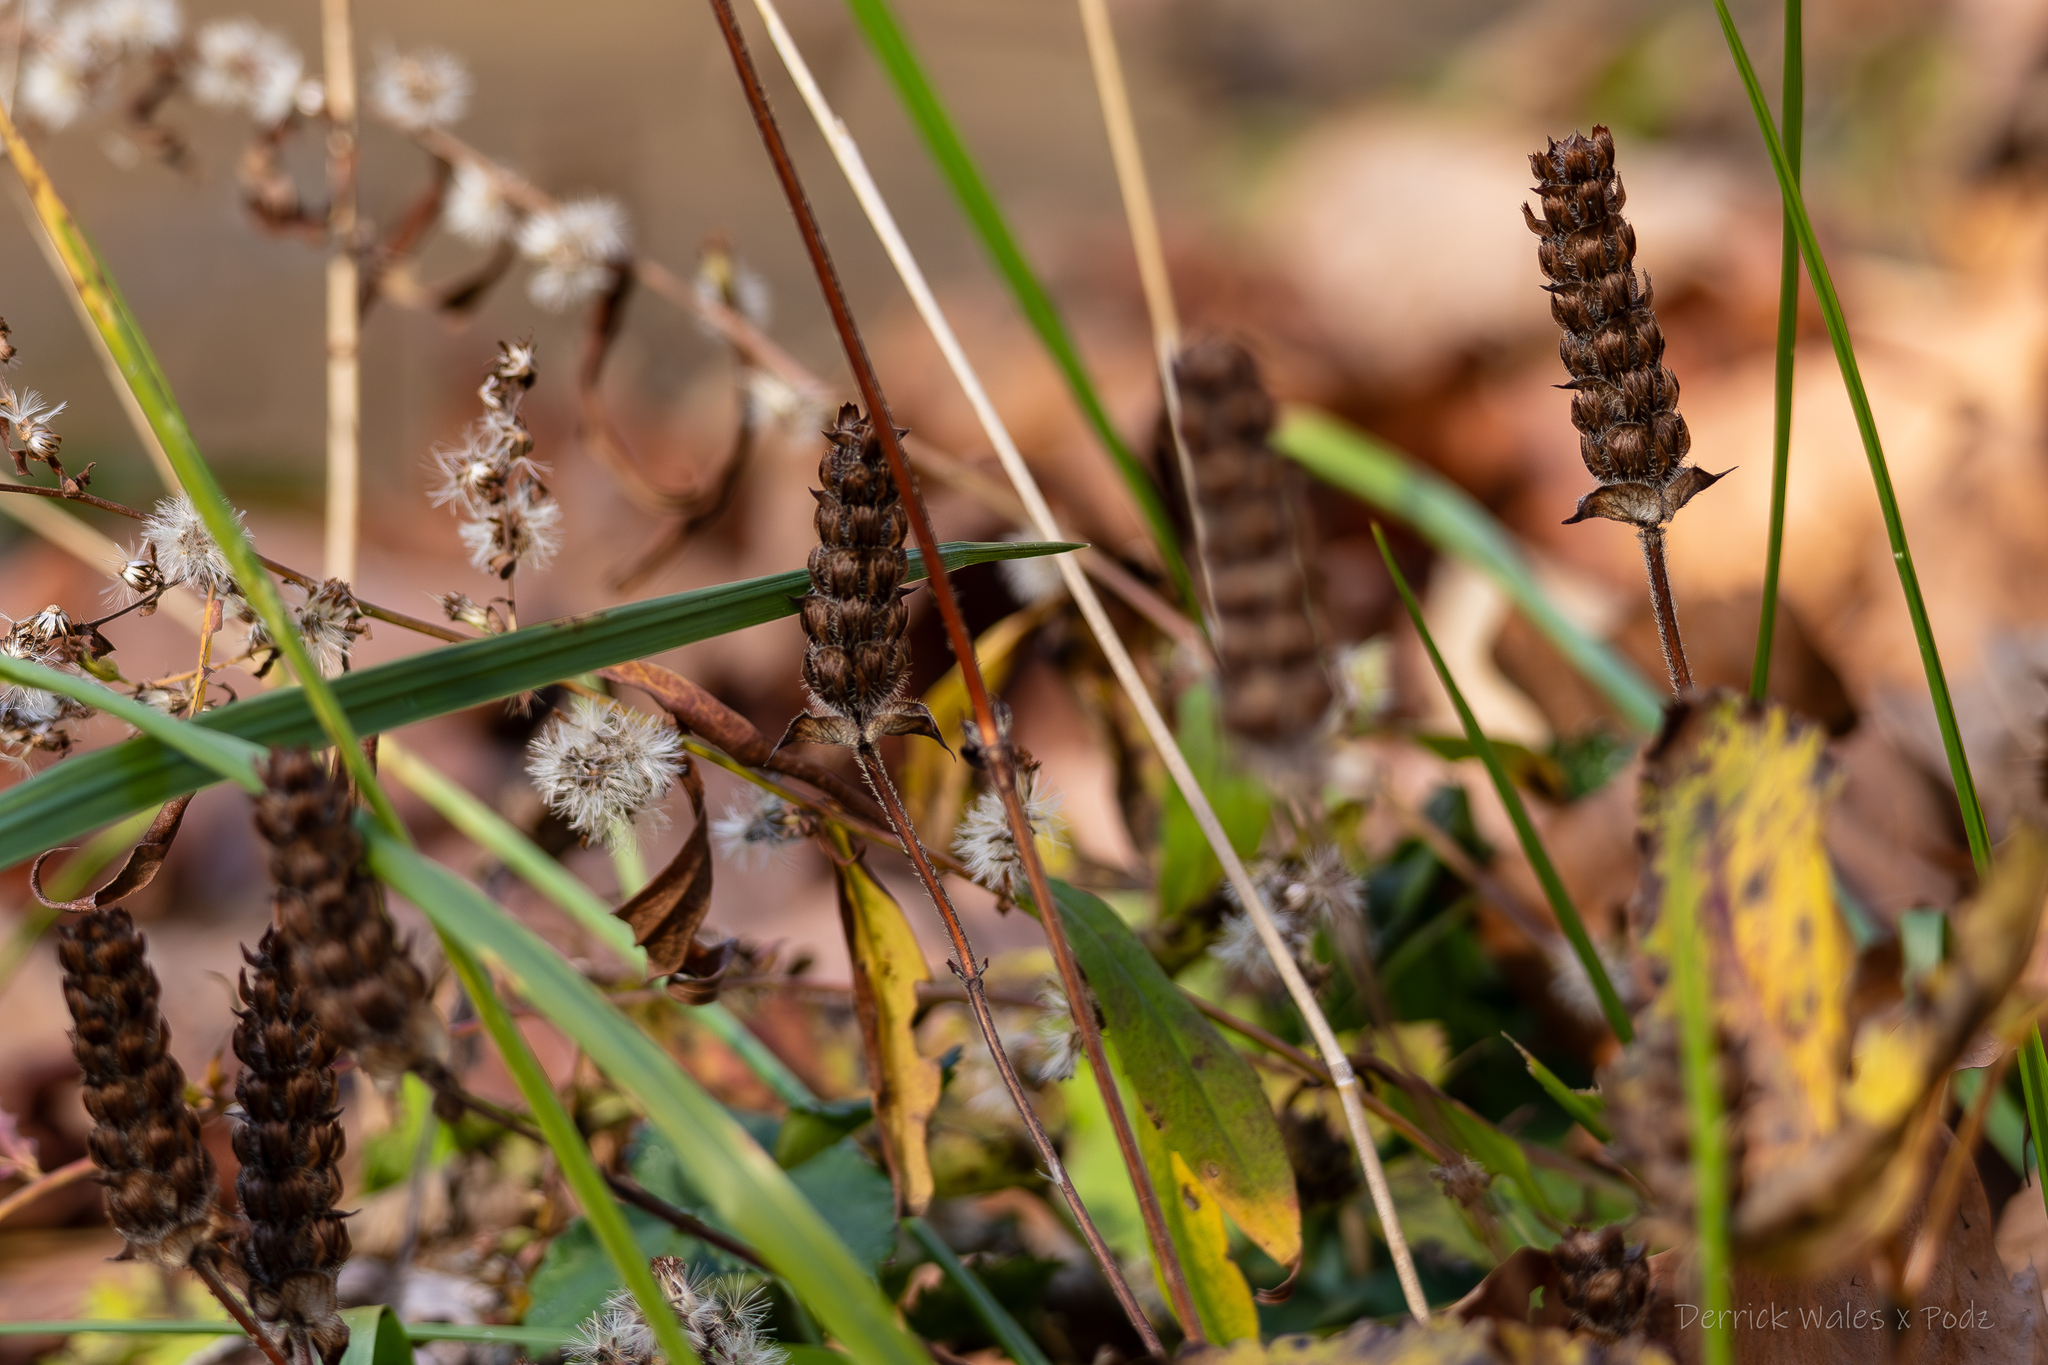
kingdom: Plantae
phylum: Tracheophyta
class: Magnoliopsida
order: Lamiales
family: Lamiaceae
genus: Prunella
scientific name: Prunella vulgaris
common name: Heal-all
